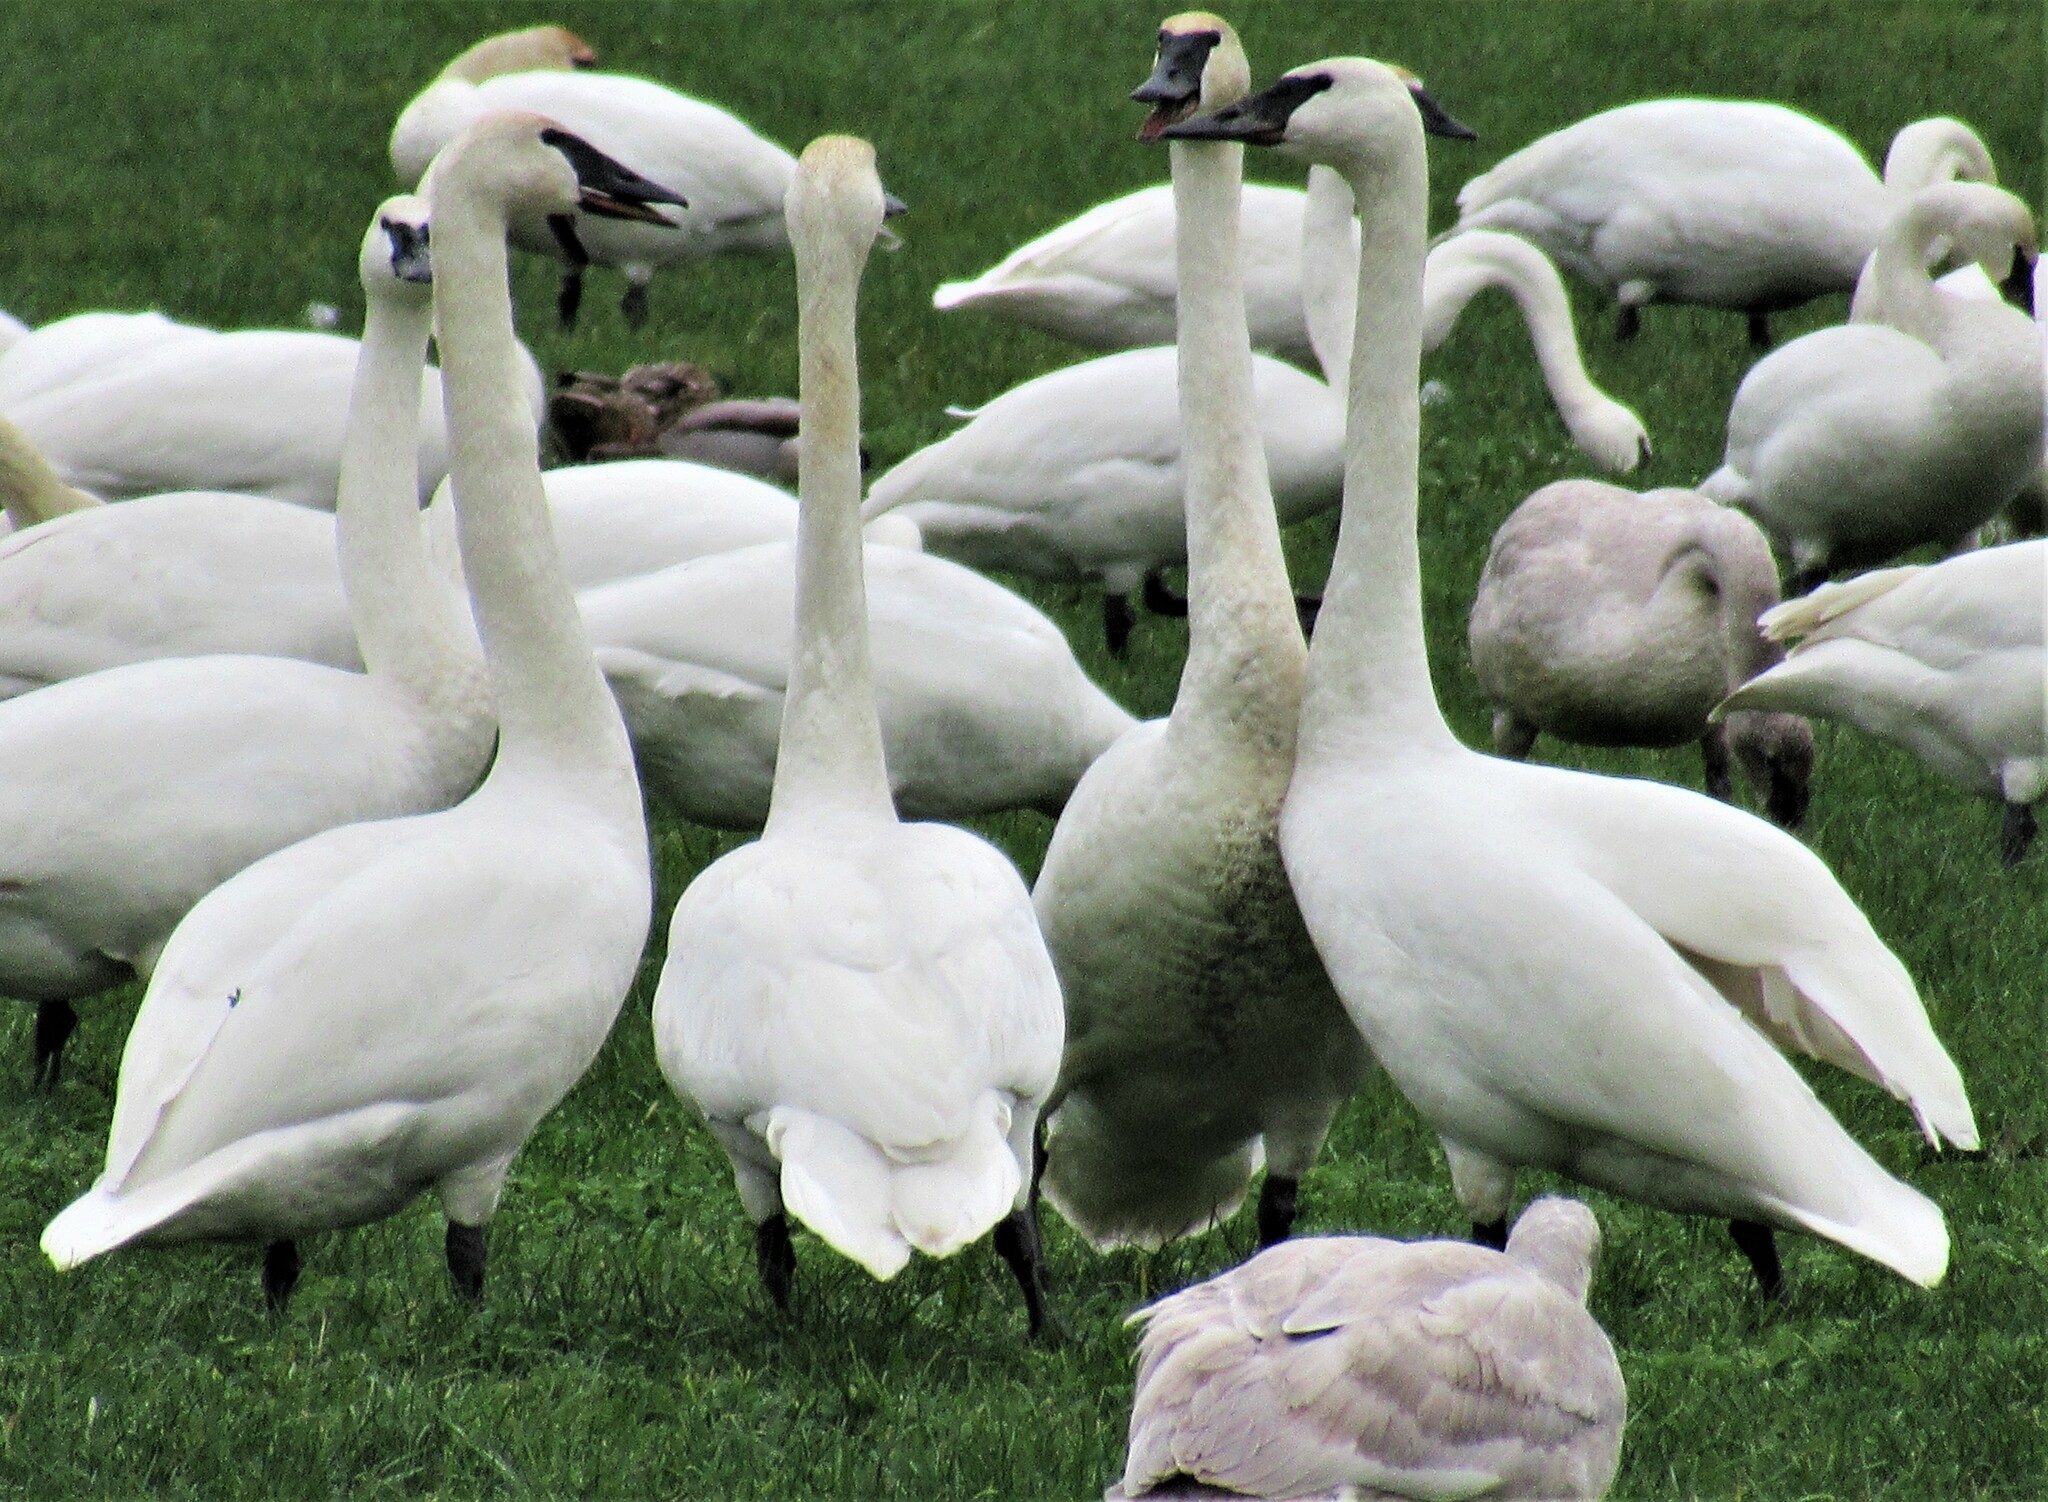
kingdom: Animalia
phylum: Chordata
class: Aves
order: Anseriformes
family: Anatidae
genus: Cygnus
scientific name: Cygnus buccinator
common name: Trumpeter swan
